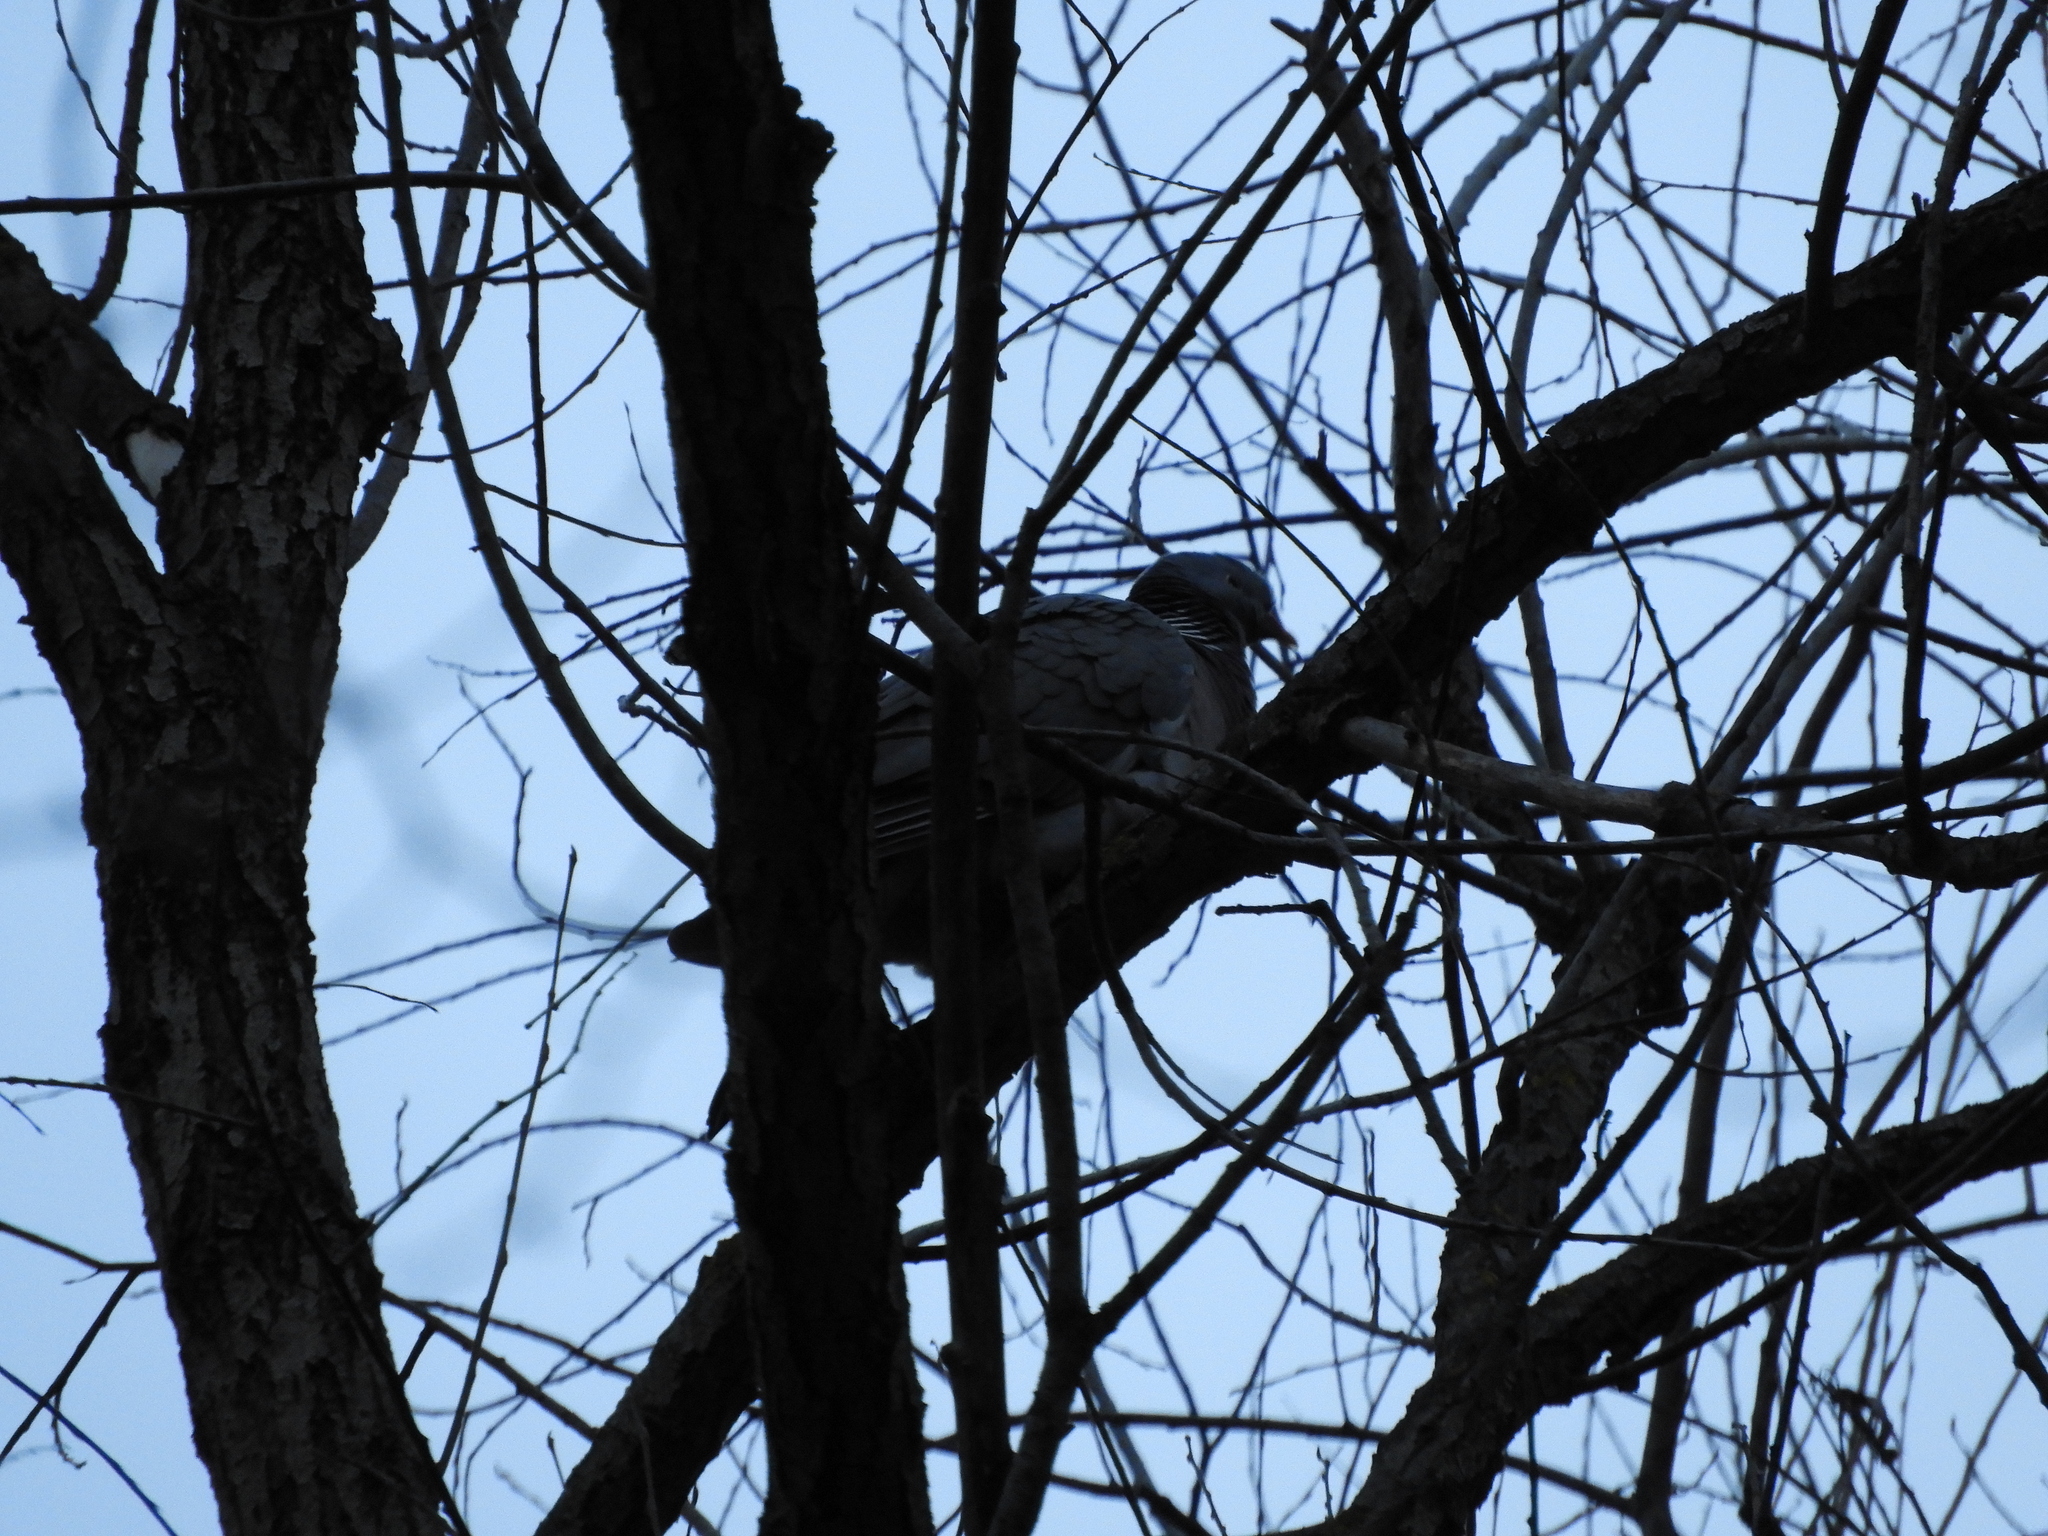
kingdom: Animalia
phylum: Chordata
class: Aves
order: Columbiformes
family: Columbidae
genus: Columba
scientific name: Columba palumbus
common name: Common wood pigeon
